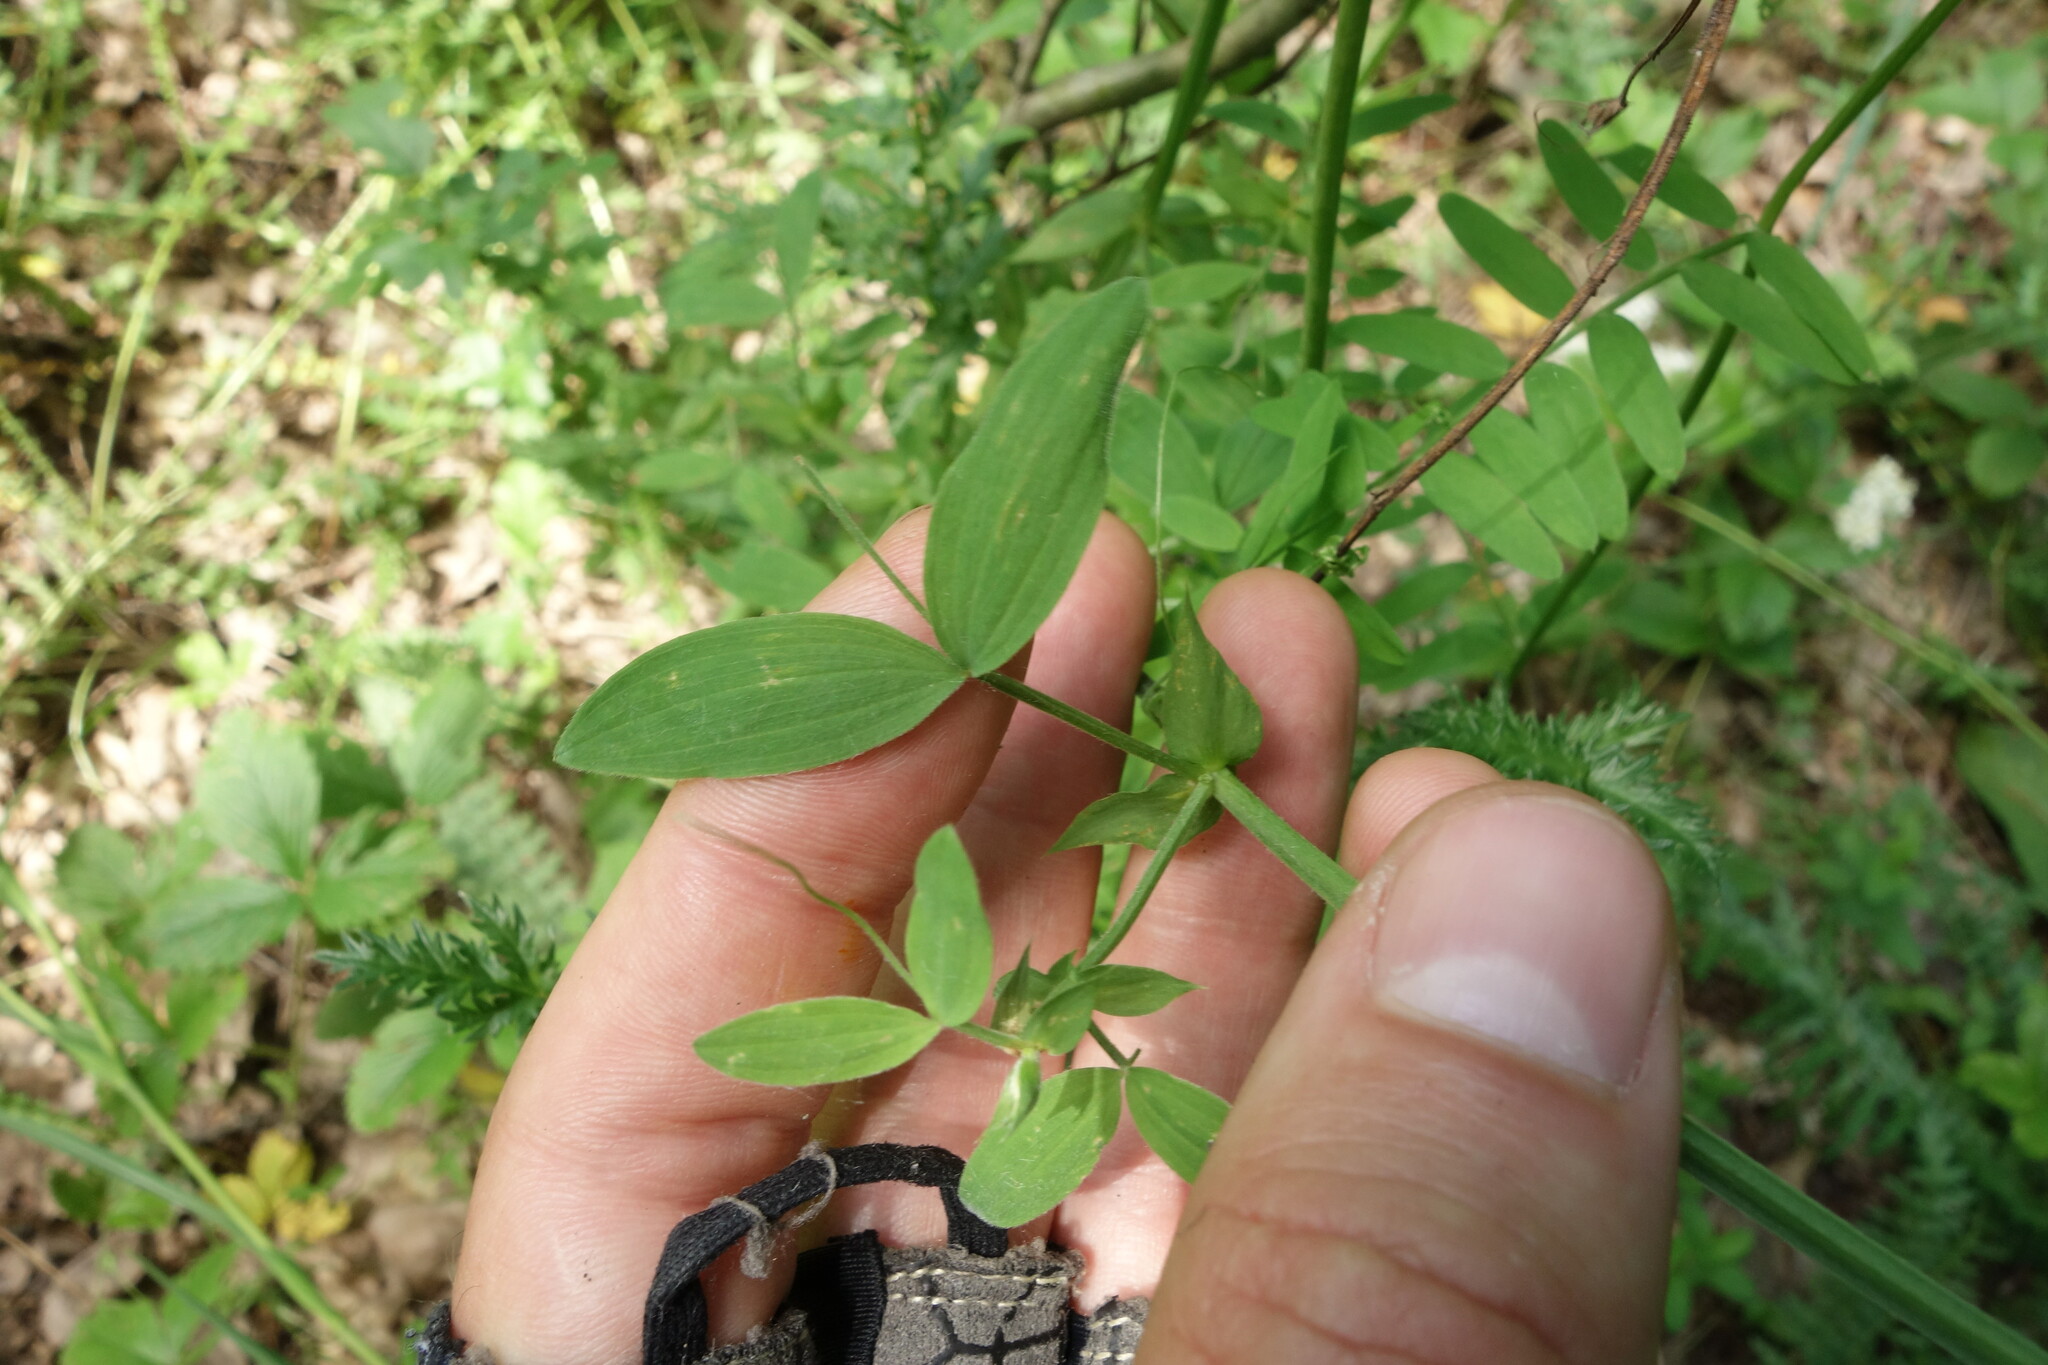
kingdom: Plantae
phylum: Tracheophyta
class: Magnoliopsida
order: Fabales
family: Fabaceae
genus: Lathyrus
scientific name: Lathyrus pratensis
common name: Meadow vetchling
